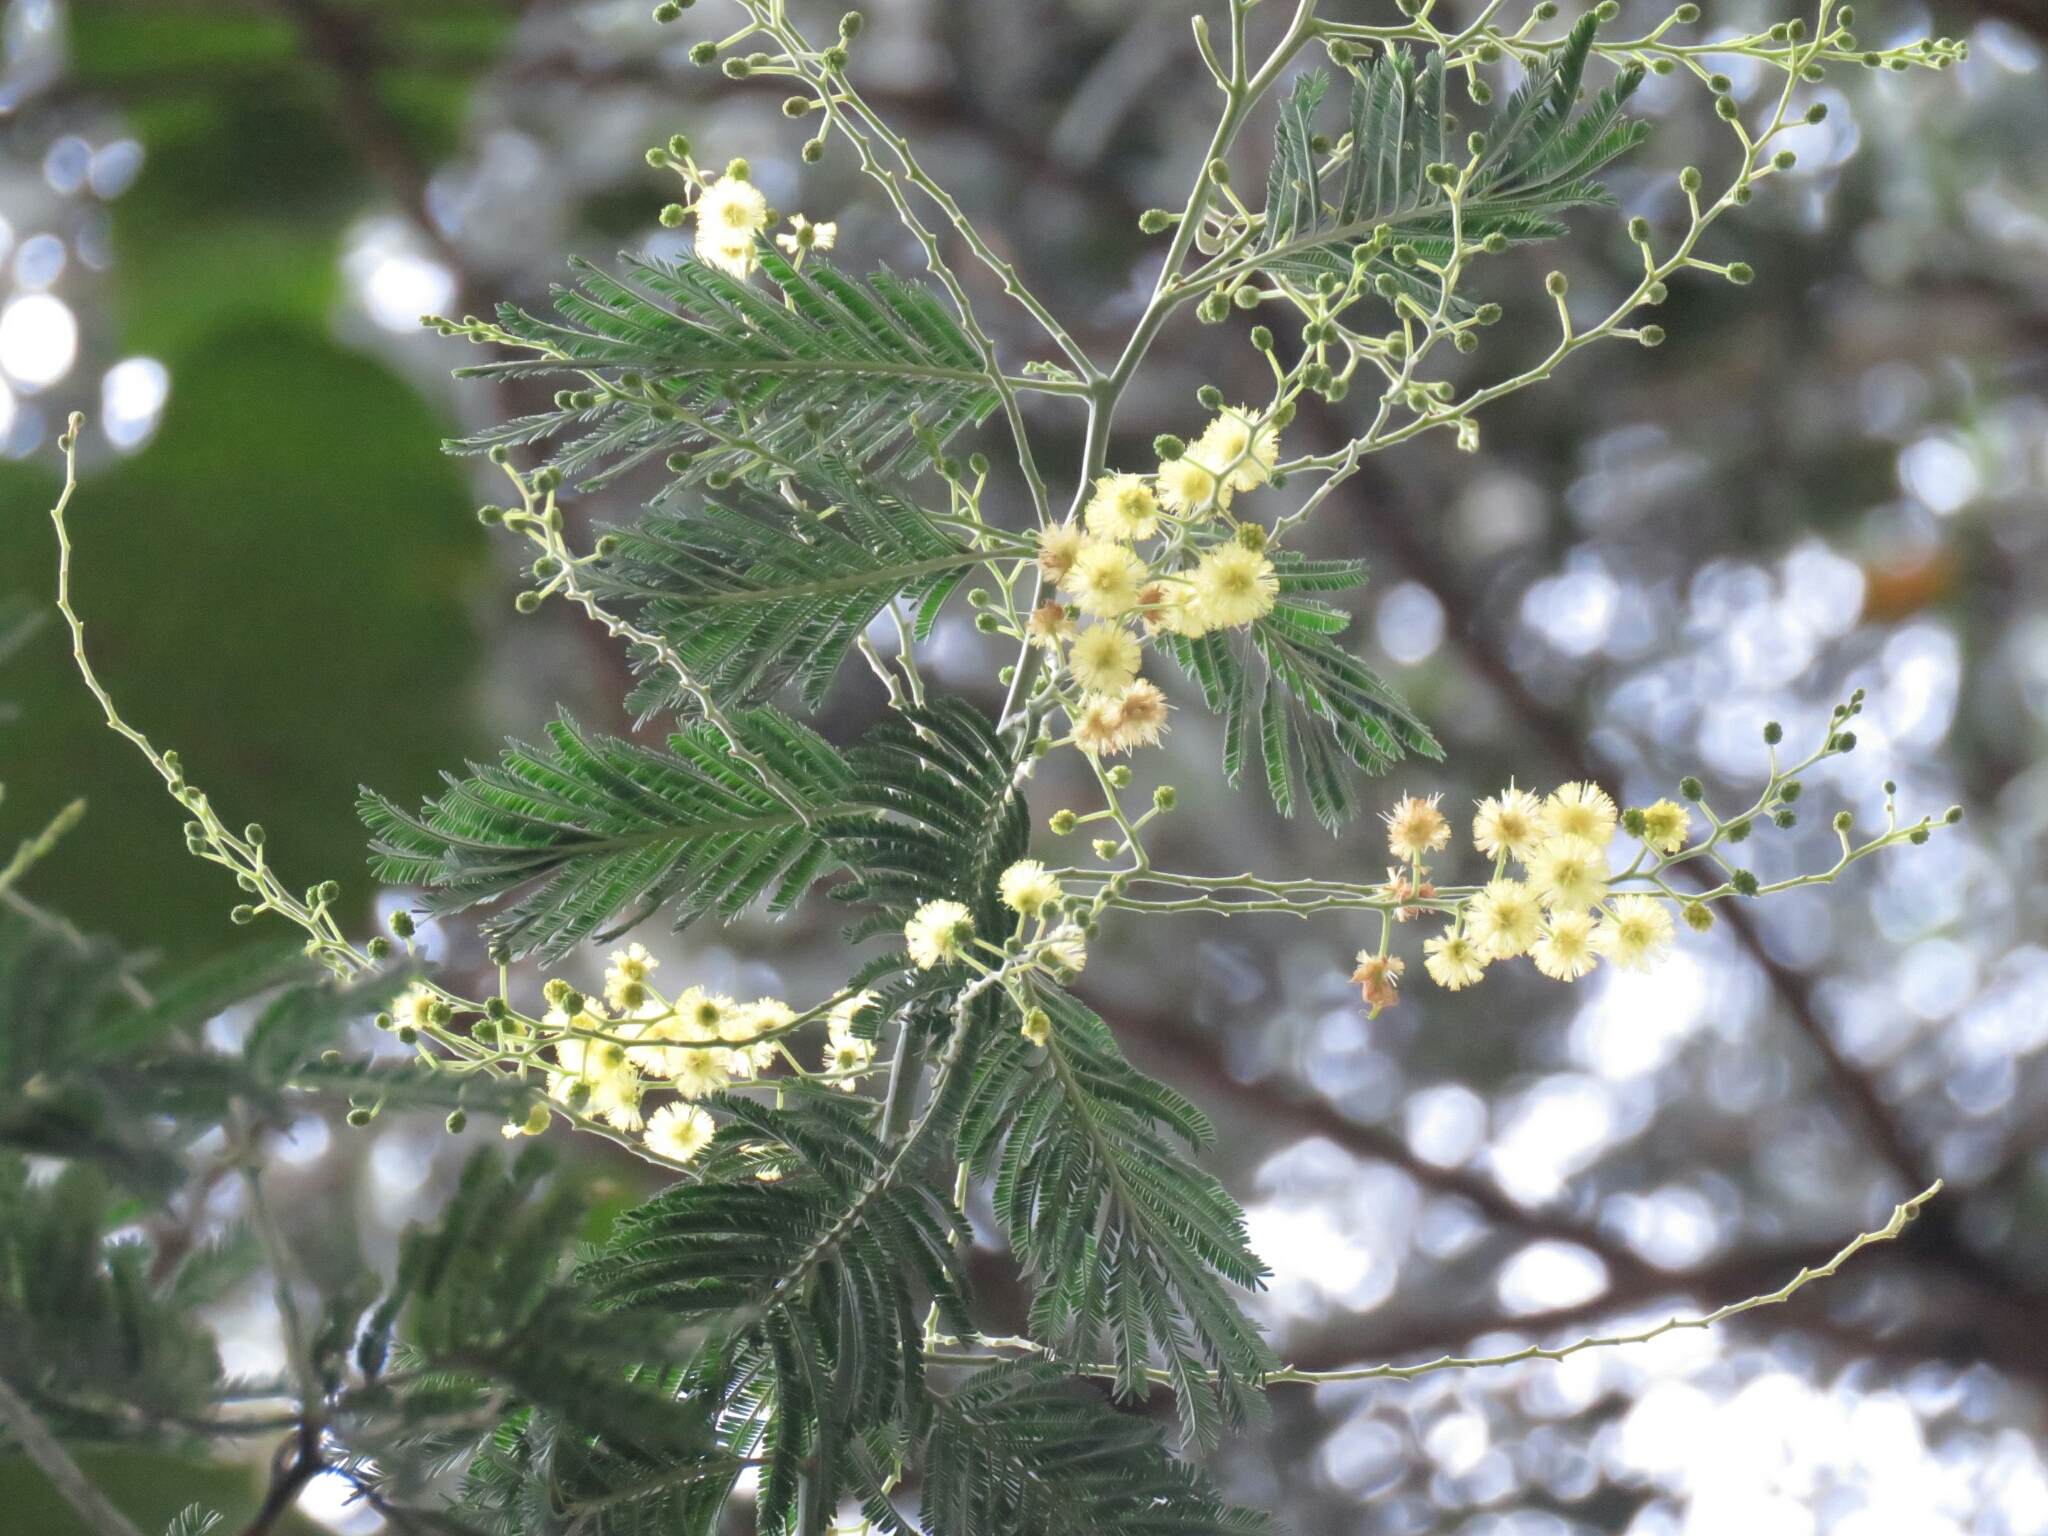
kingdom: Plantae
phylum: Tracheophyta
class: Magnoliopsida
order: Fabales
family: Fabaceae
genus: Acacia
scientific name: Acacia dealbata
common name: Silver wattle
